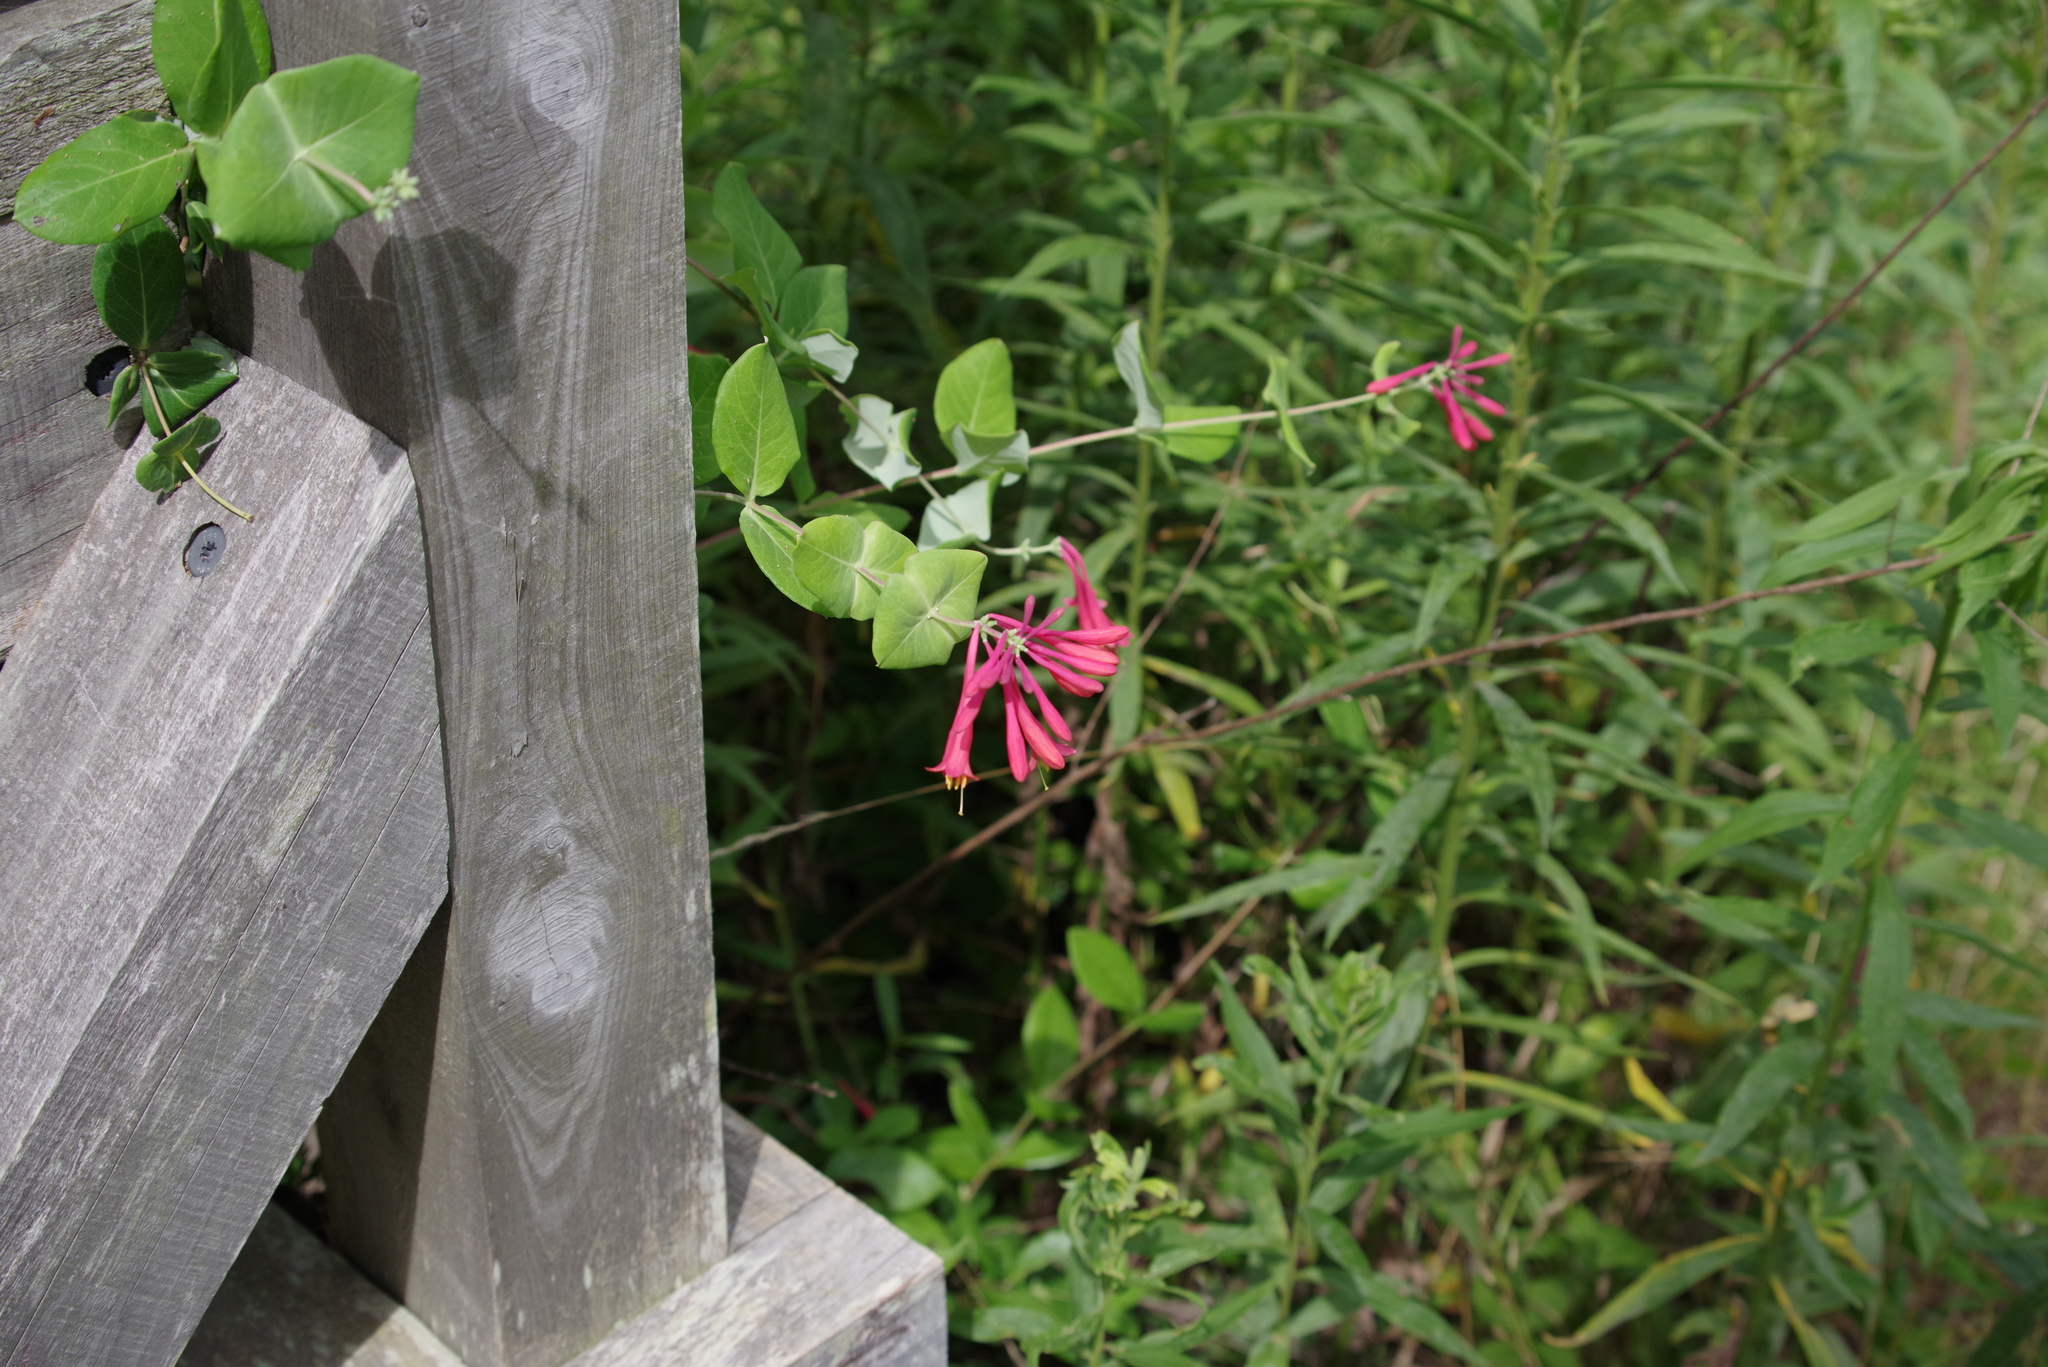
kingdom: Plantae
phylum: Tracheophyta
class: Magnoliopsida
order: Dipsacales
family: Caprifoliaceae
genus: Lonicera
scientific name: Lonicera sempervirens
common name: Coral honeysuckle
